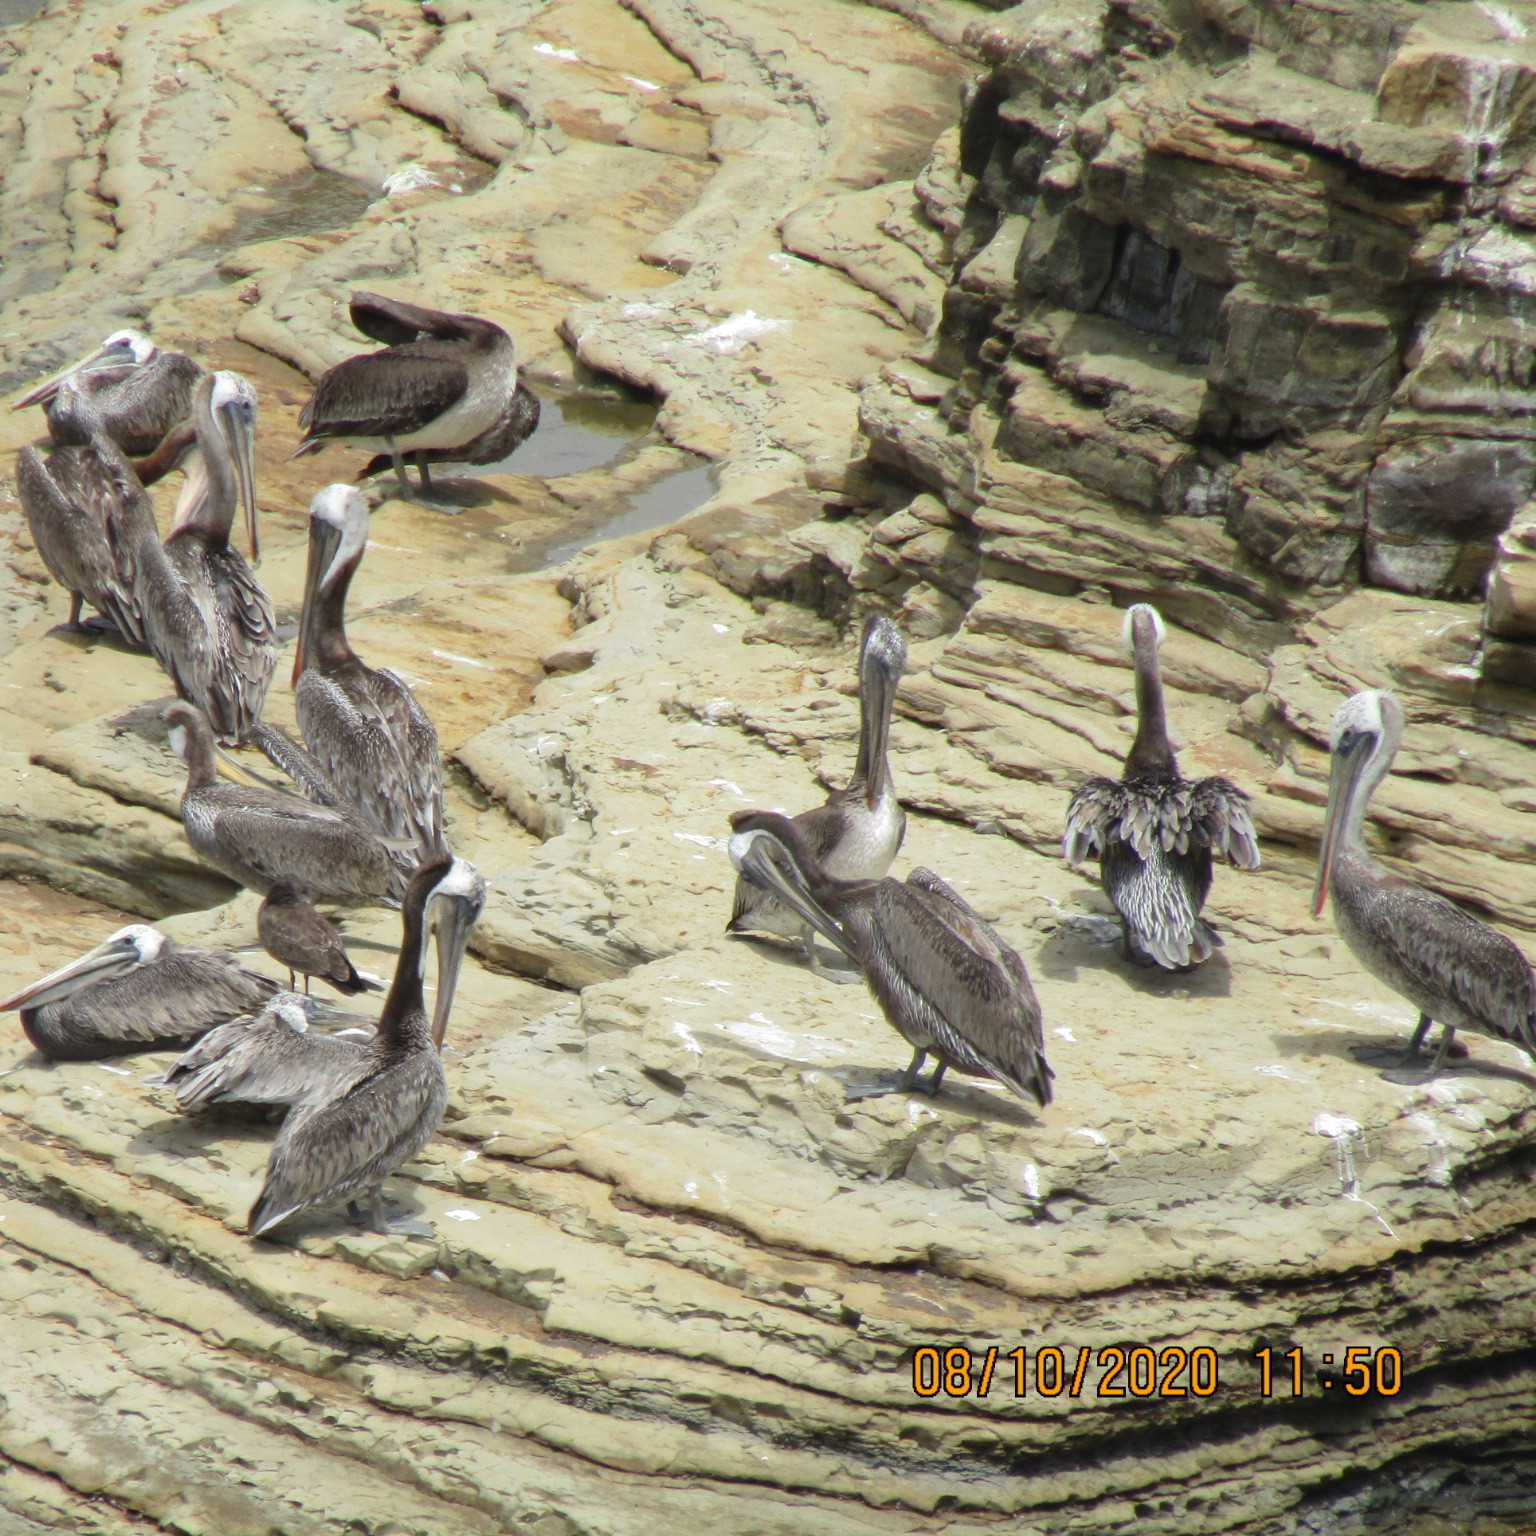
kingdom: Animalia
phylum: Chordata
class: Aves
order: Pelecaniformes
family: Pelecanidae
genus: Pelecanus
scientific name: Pelecanus occidentalis
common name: Brown pelican
